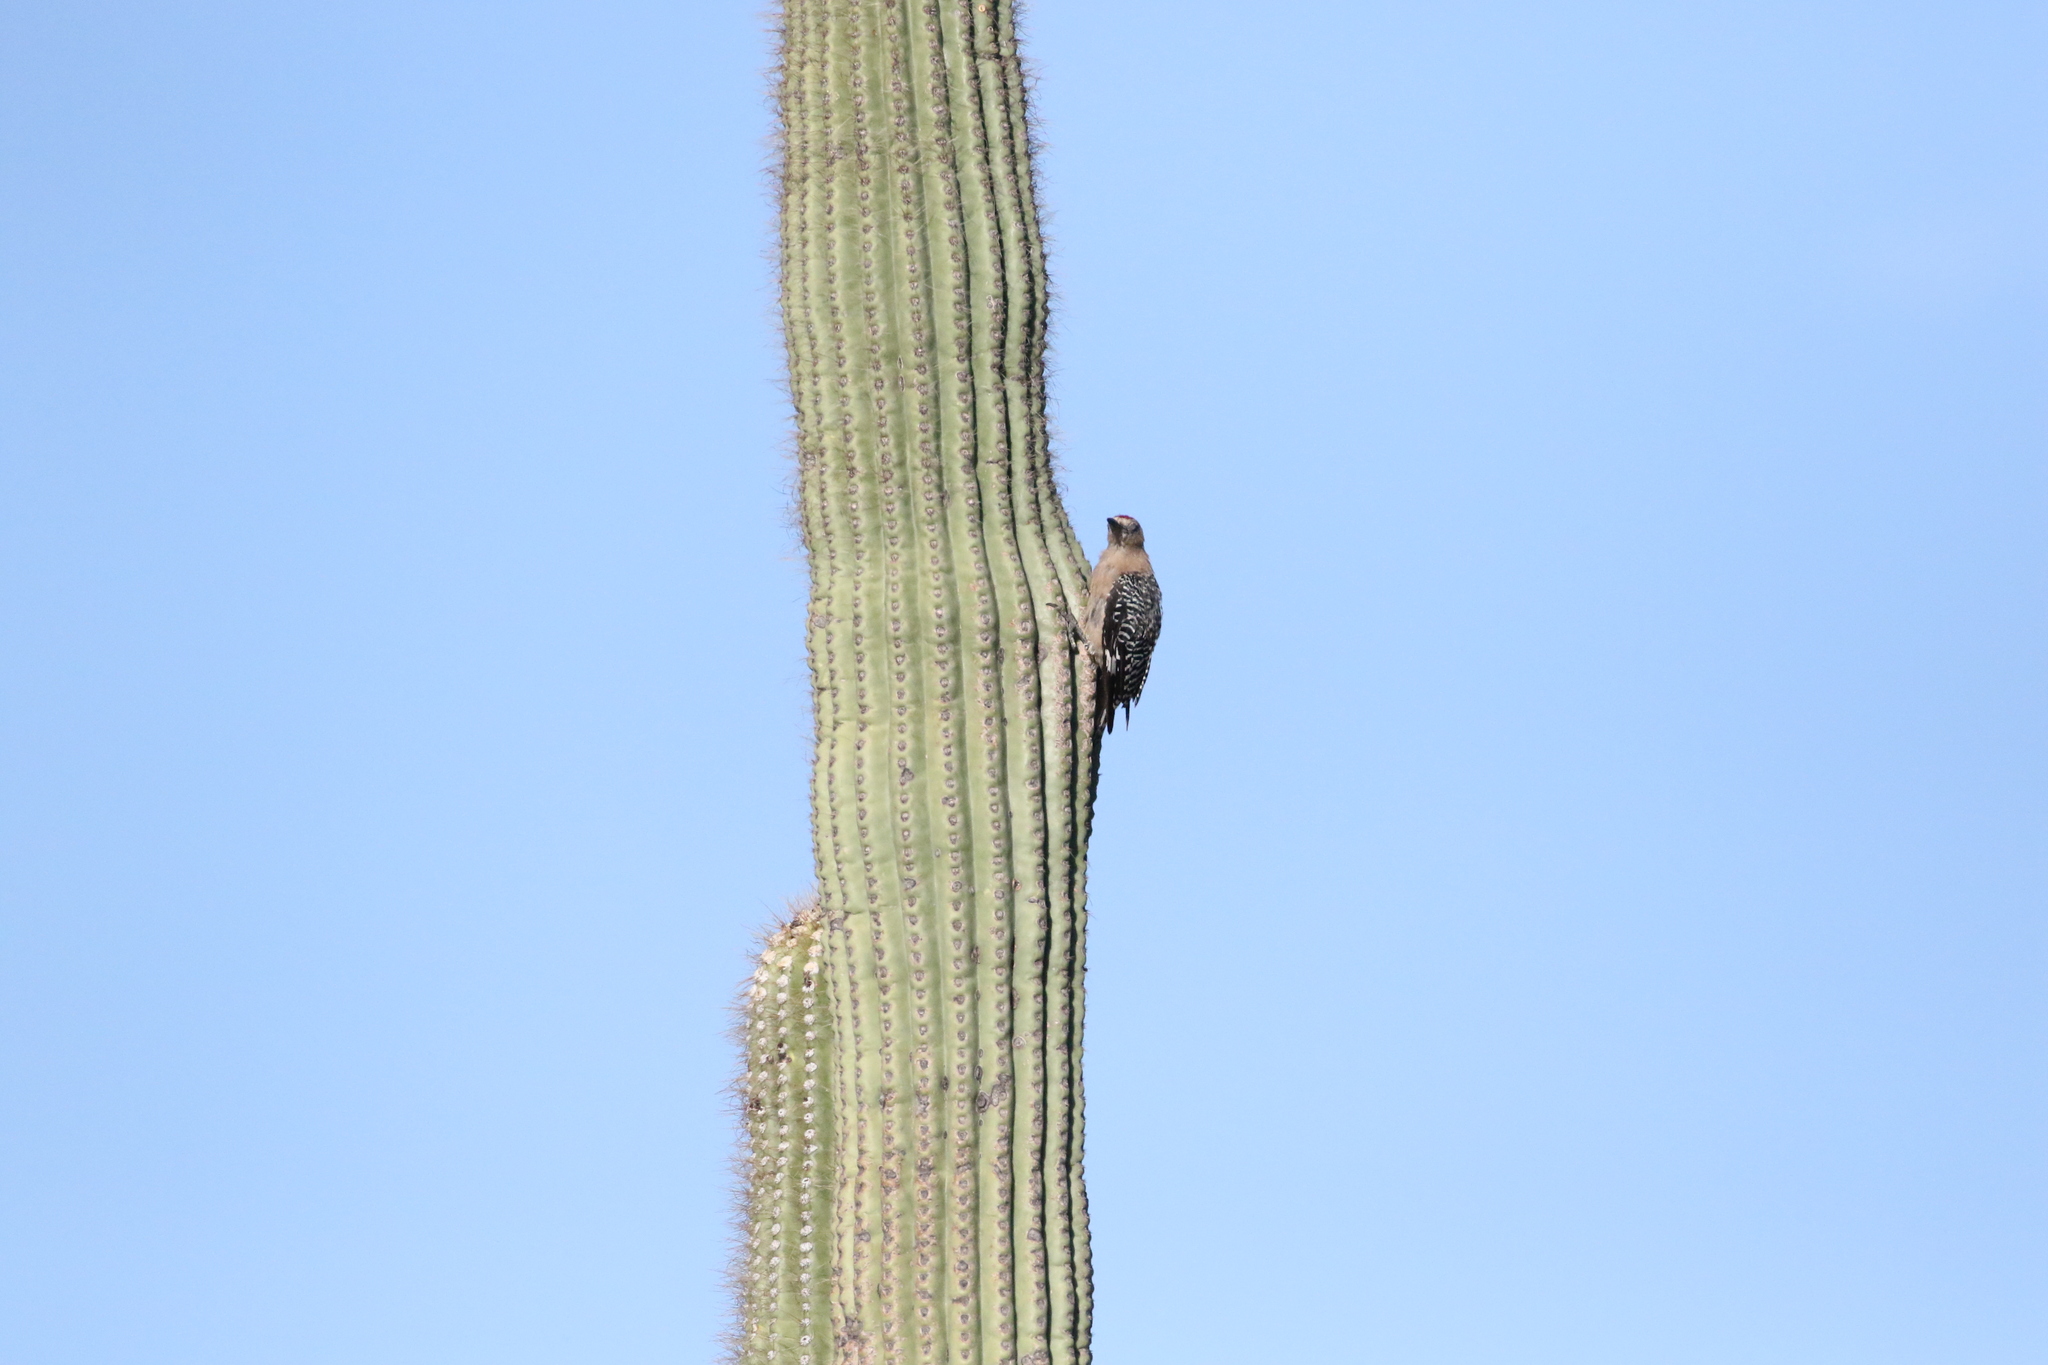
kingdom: Animalia
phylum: Chordata
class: Aves
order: Piciformes
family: Picidae
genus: Melanerpes
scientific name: Melanerpes uropygialis
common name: Gila woodpecker
